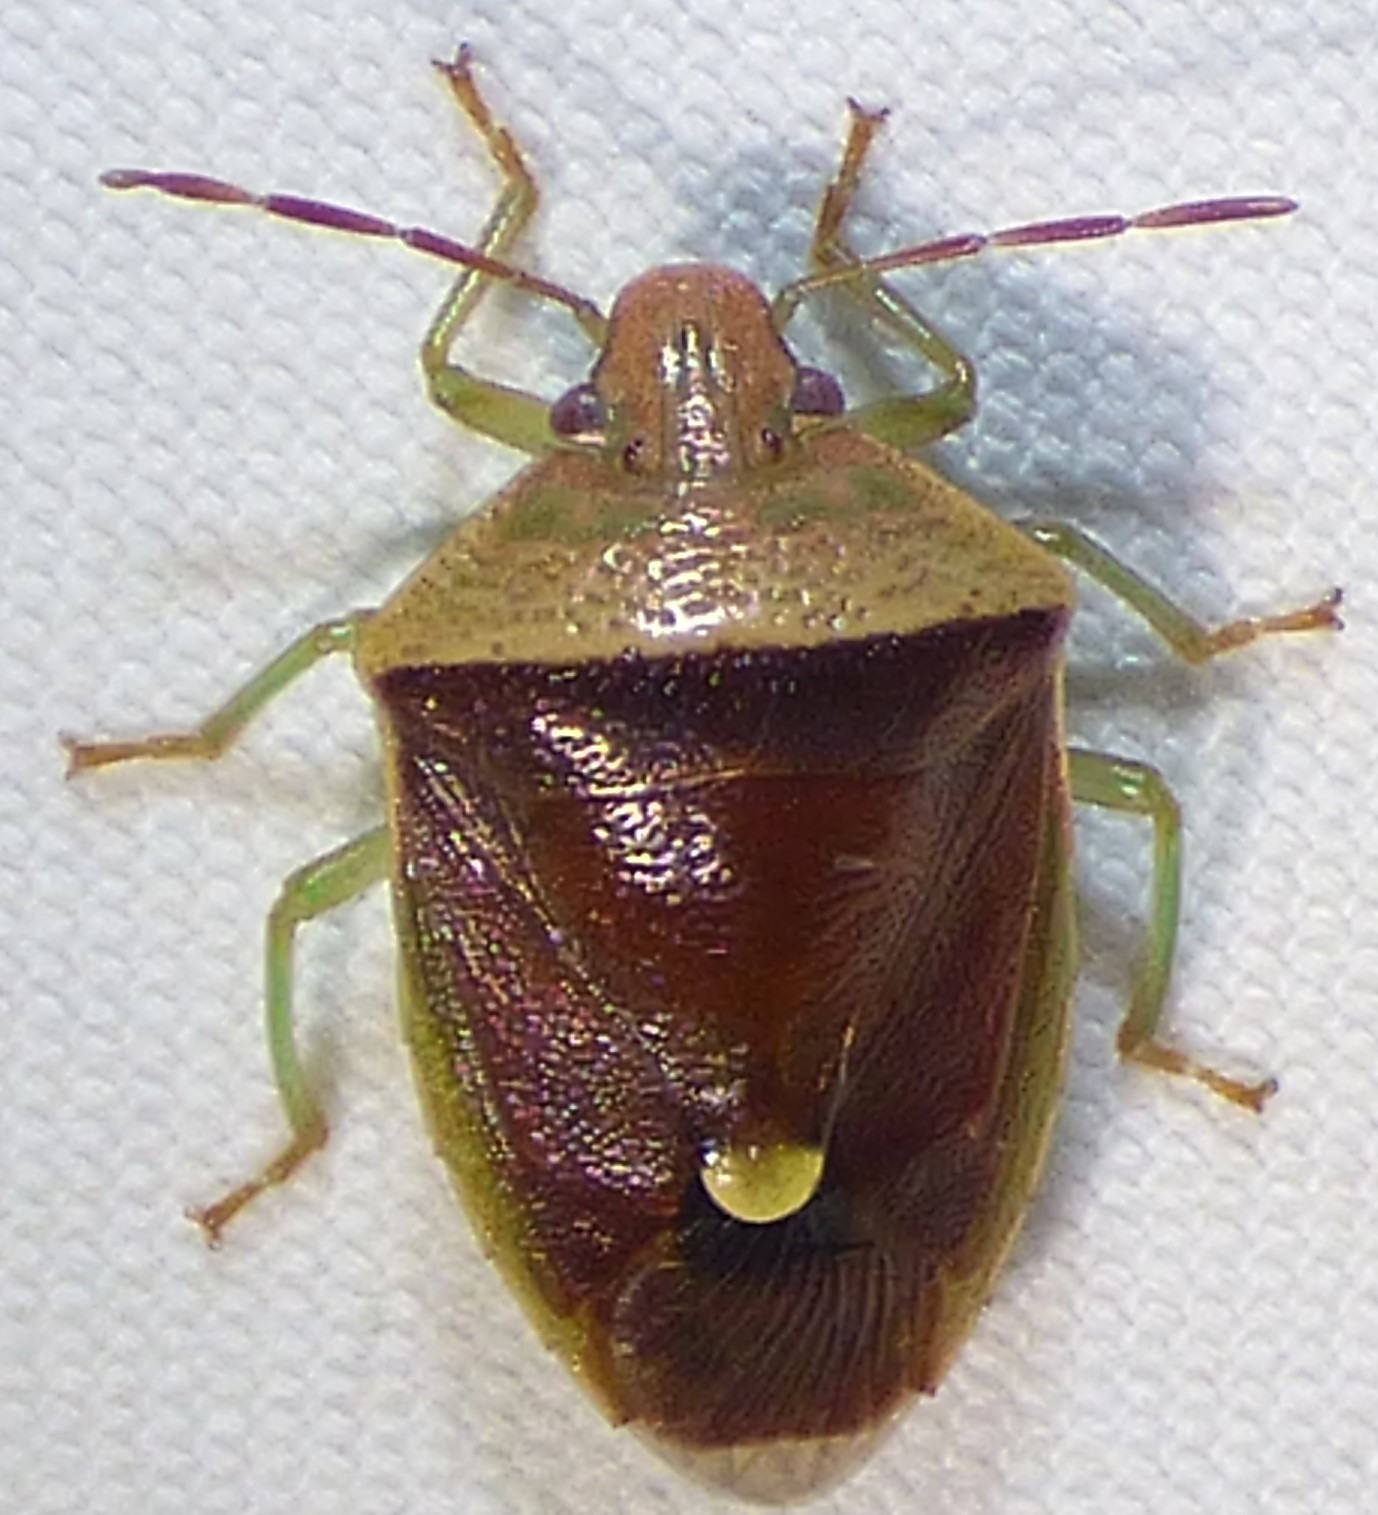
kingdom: Animalia
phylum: Arthropoda
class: Insecta
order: Hemiptera
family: Pentatomidae
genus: Banasa
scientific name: Banasa calva
